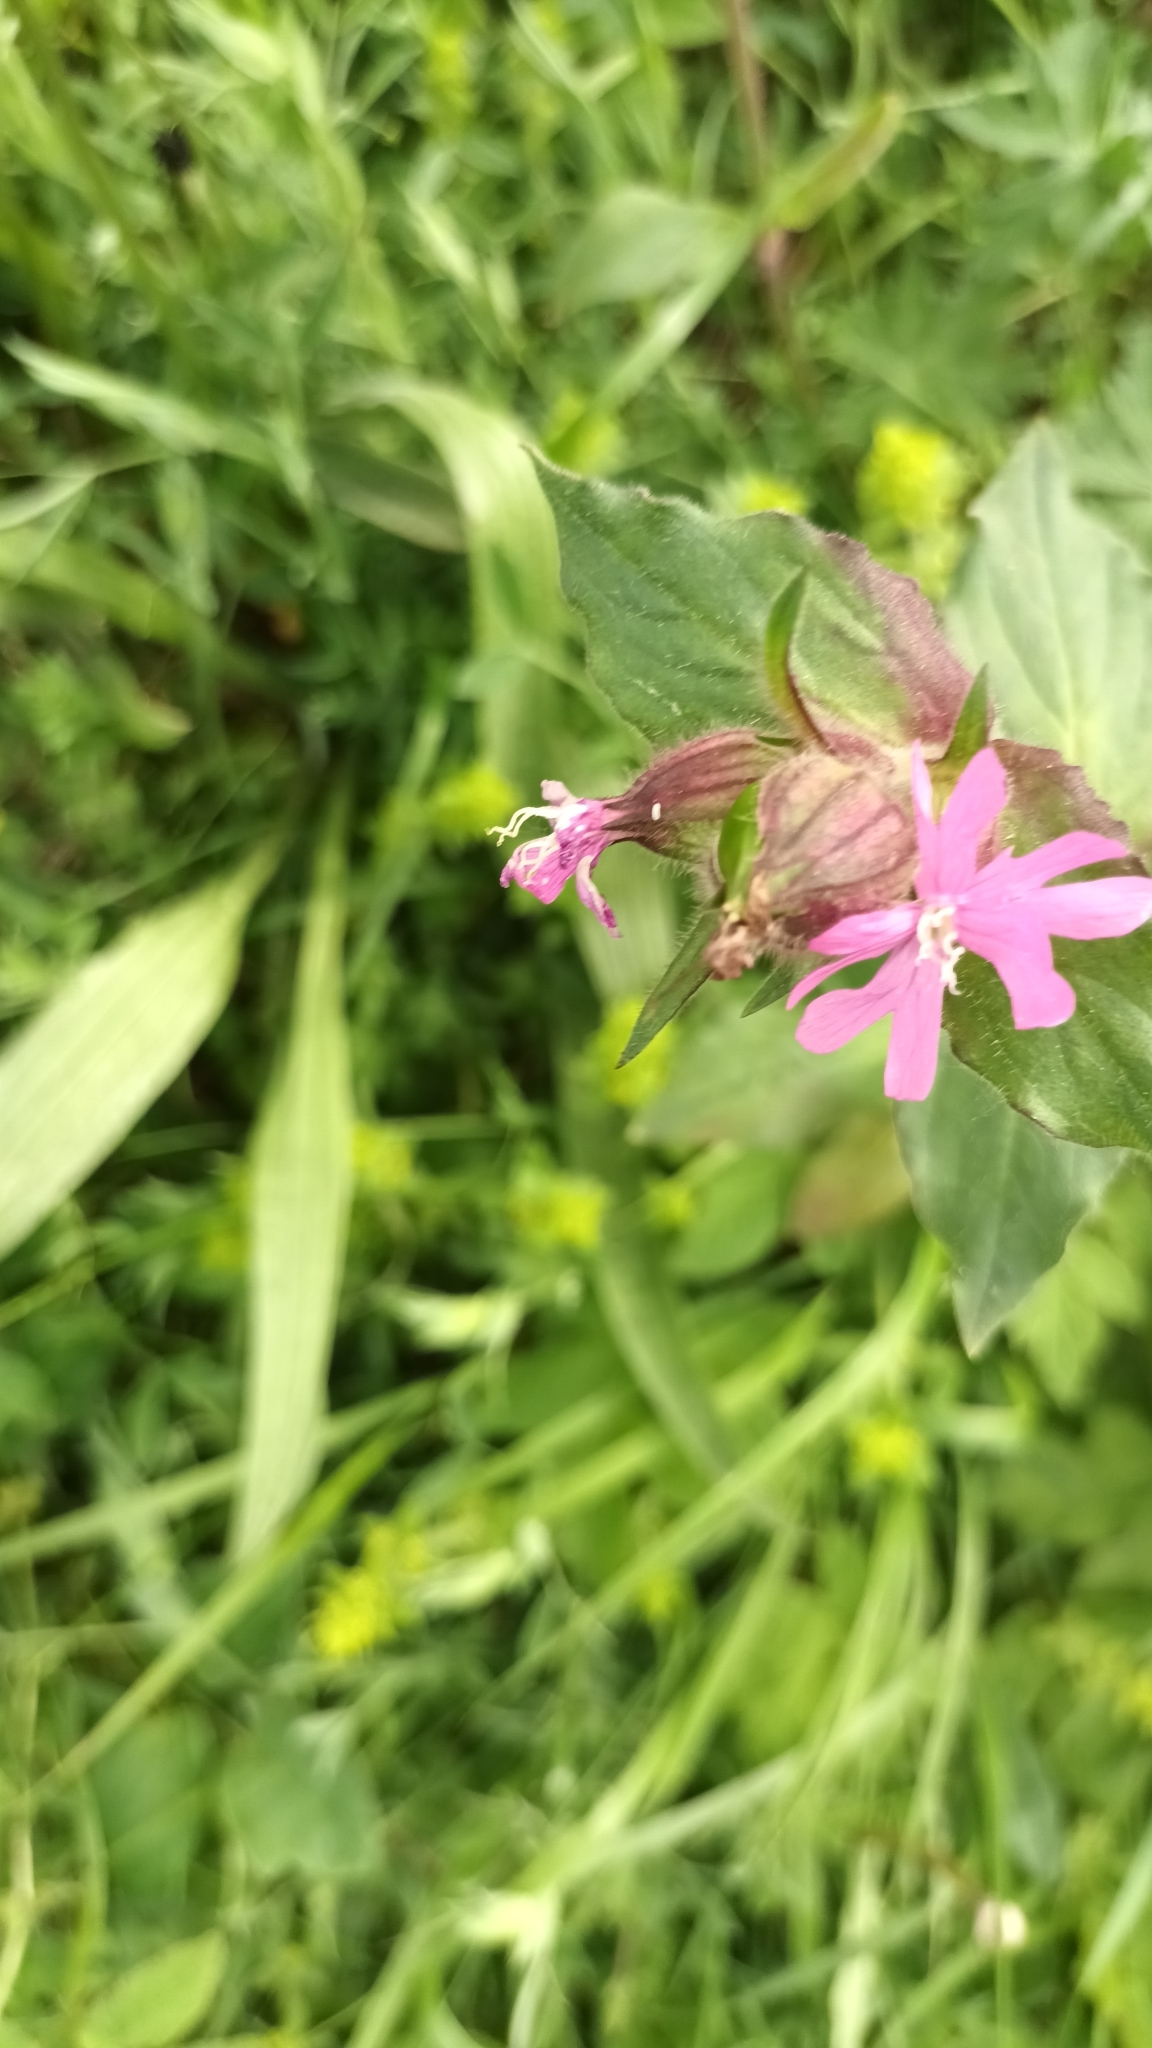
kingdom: Plantae
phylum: Tracheophyta
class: Magnoliopsida
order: Caryophyllales
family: Caryophyllaceae
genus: Silene
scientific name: Silene dioica
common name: Red campion
